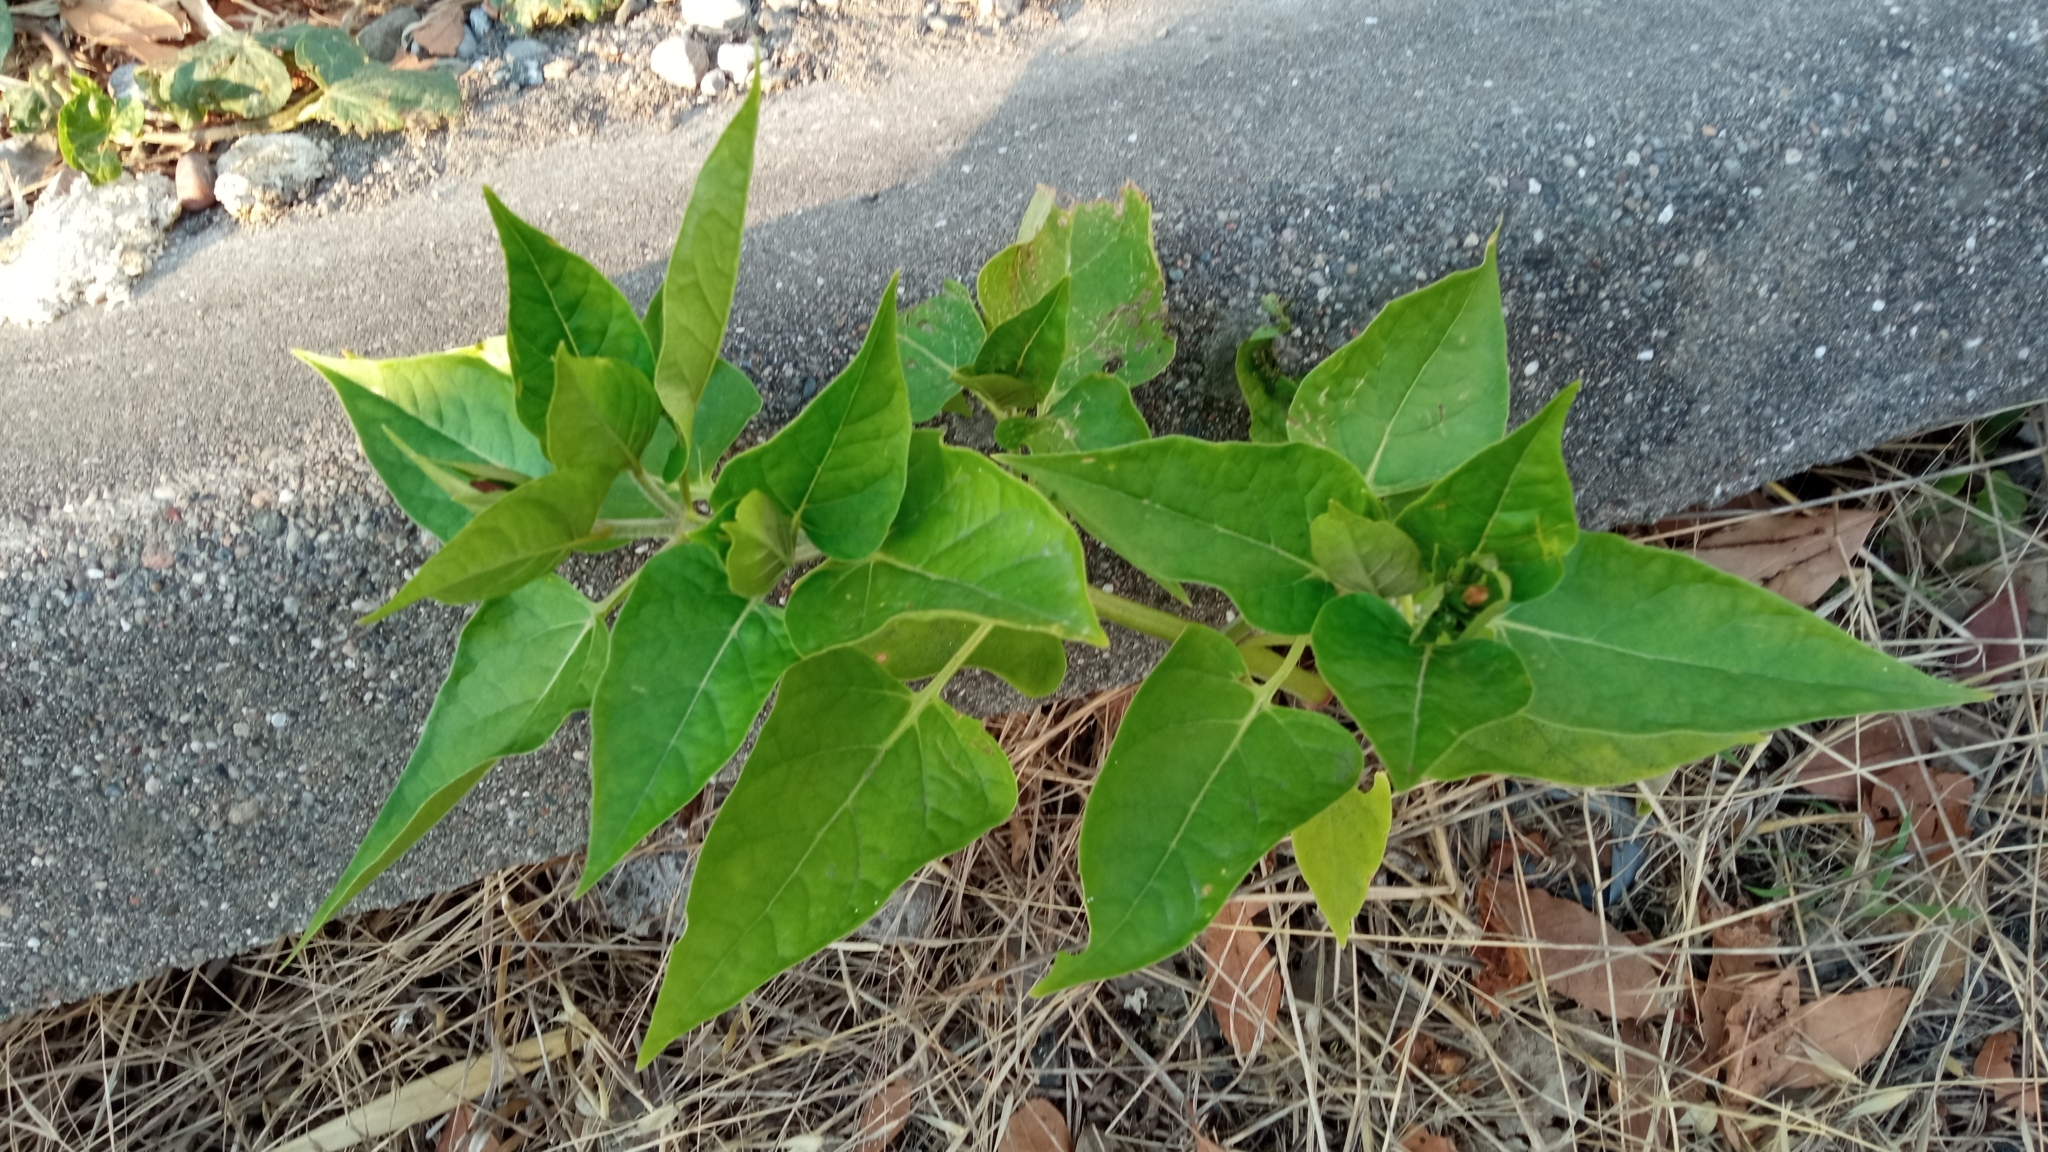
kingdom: Plantae
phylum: Tracheophyta
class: Magnoliopsida
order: Caryophyllales
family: Nyctaginaceae
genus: Mirabilis
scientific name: Mirabilis jalapa
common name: Marvel-of-peru
